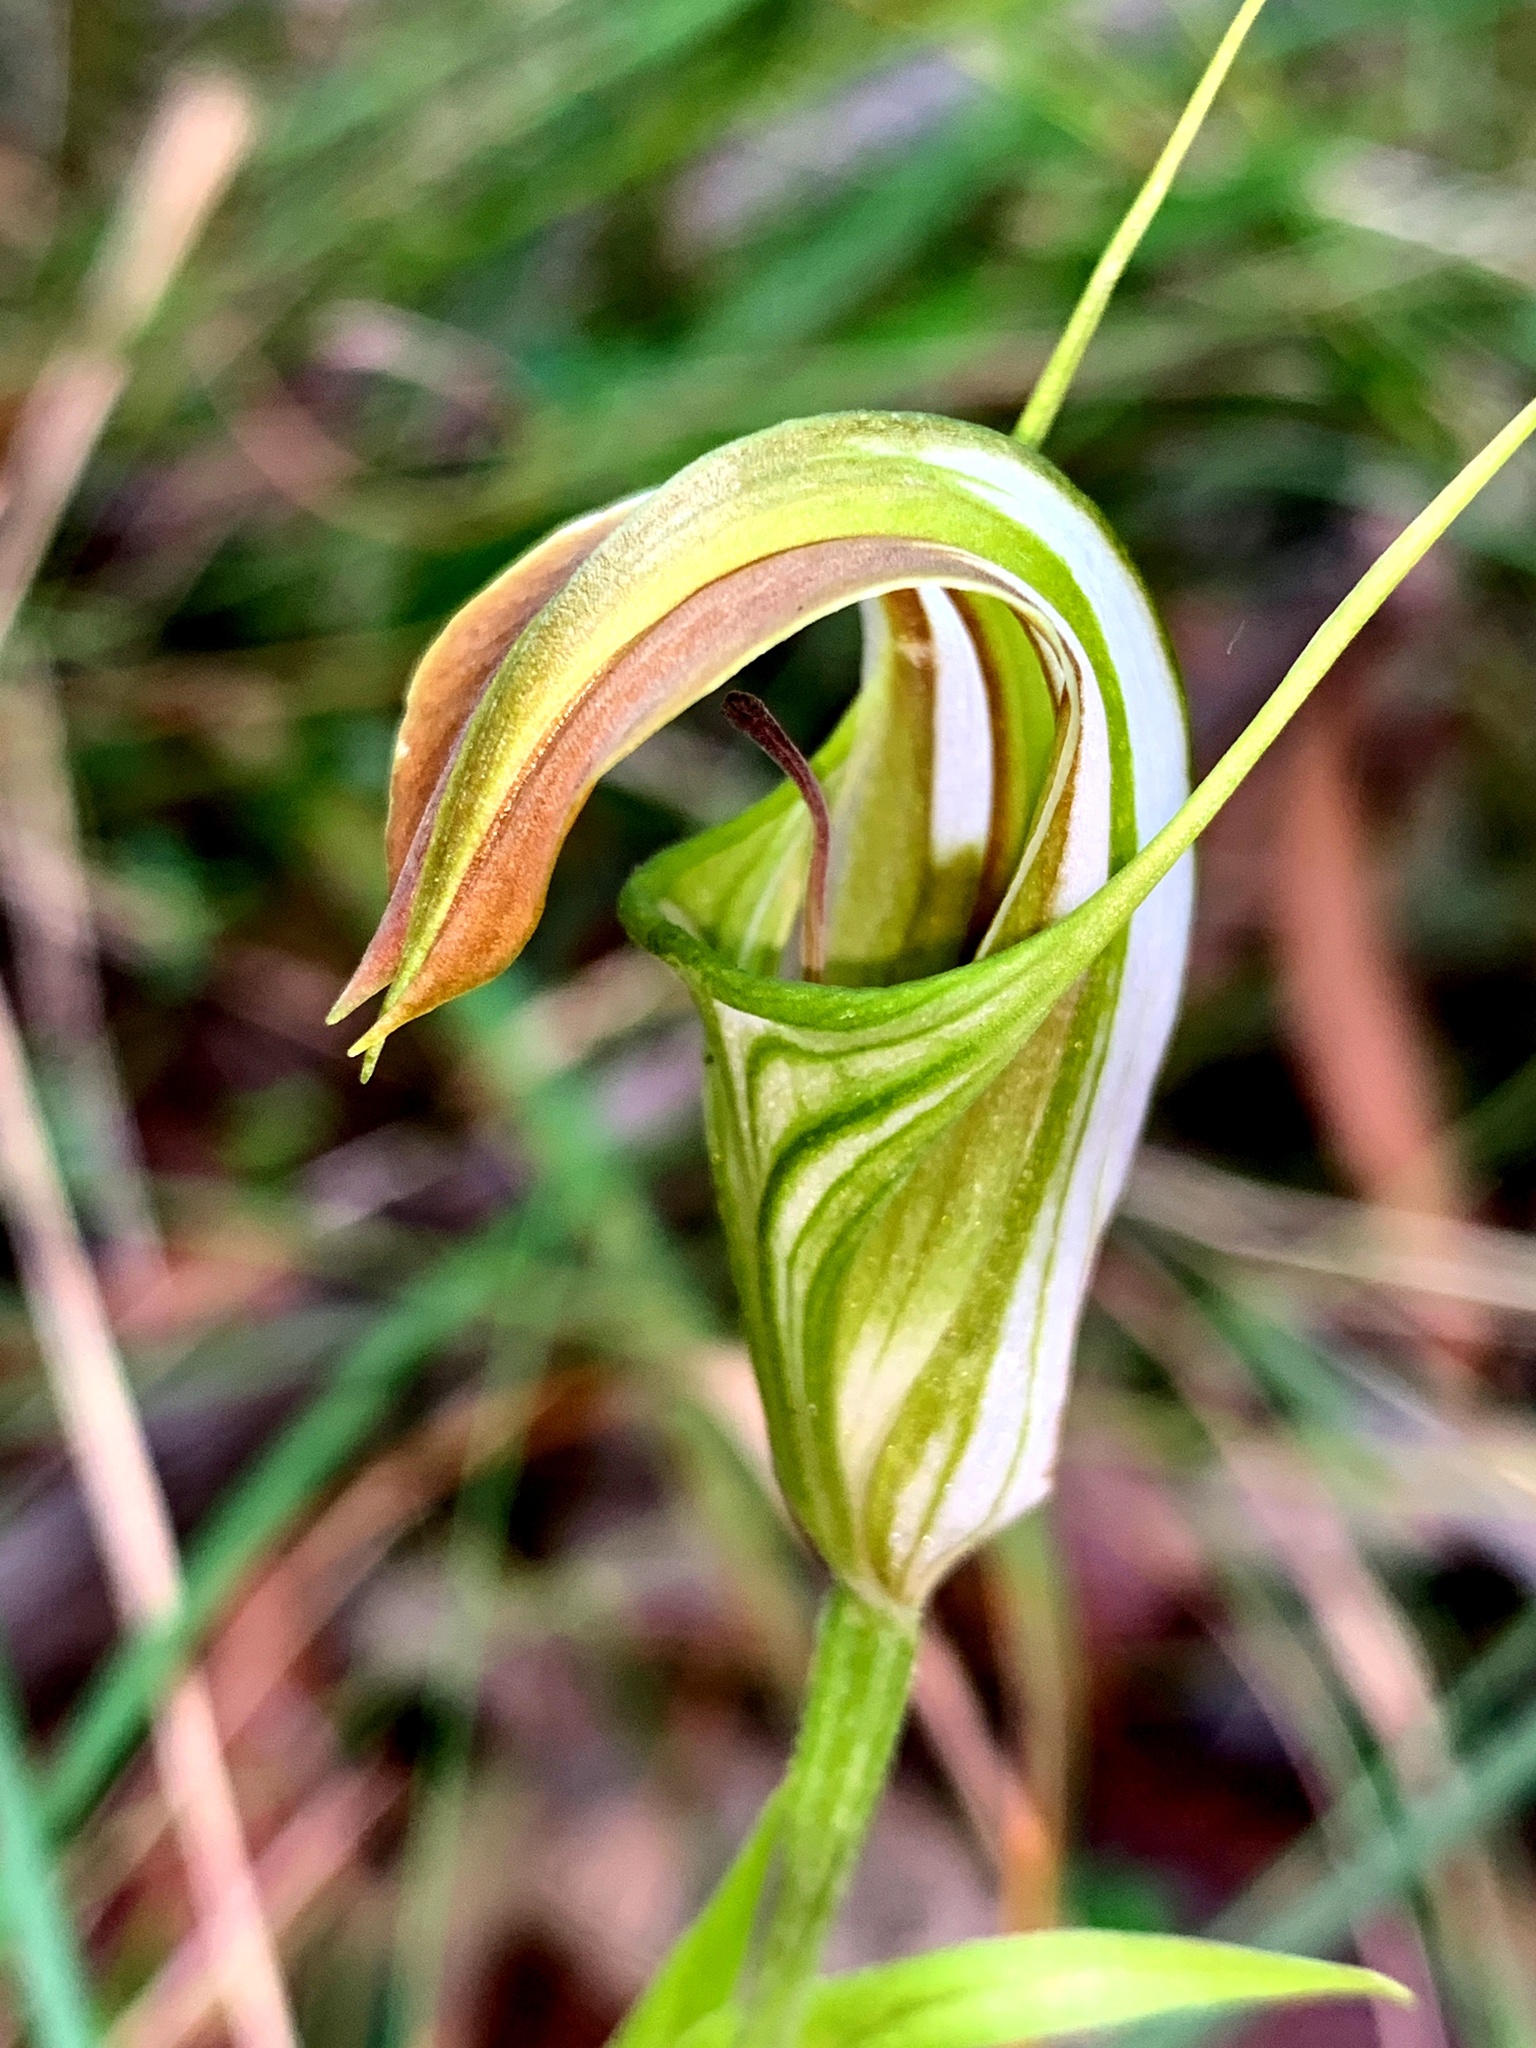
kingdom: Plantae
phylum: Tracheophyta
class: Liliopsida
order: Asparagales
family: Orchidaceae
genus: Pterostylis
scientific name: Pterostylis grandiflora
